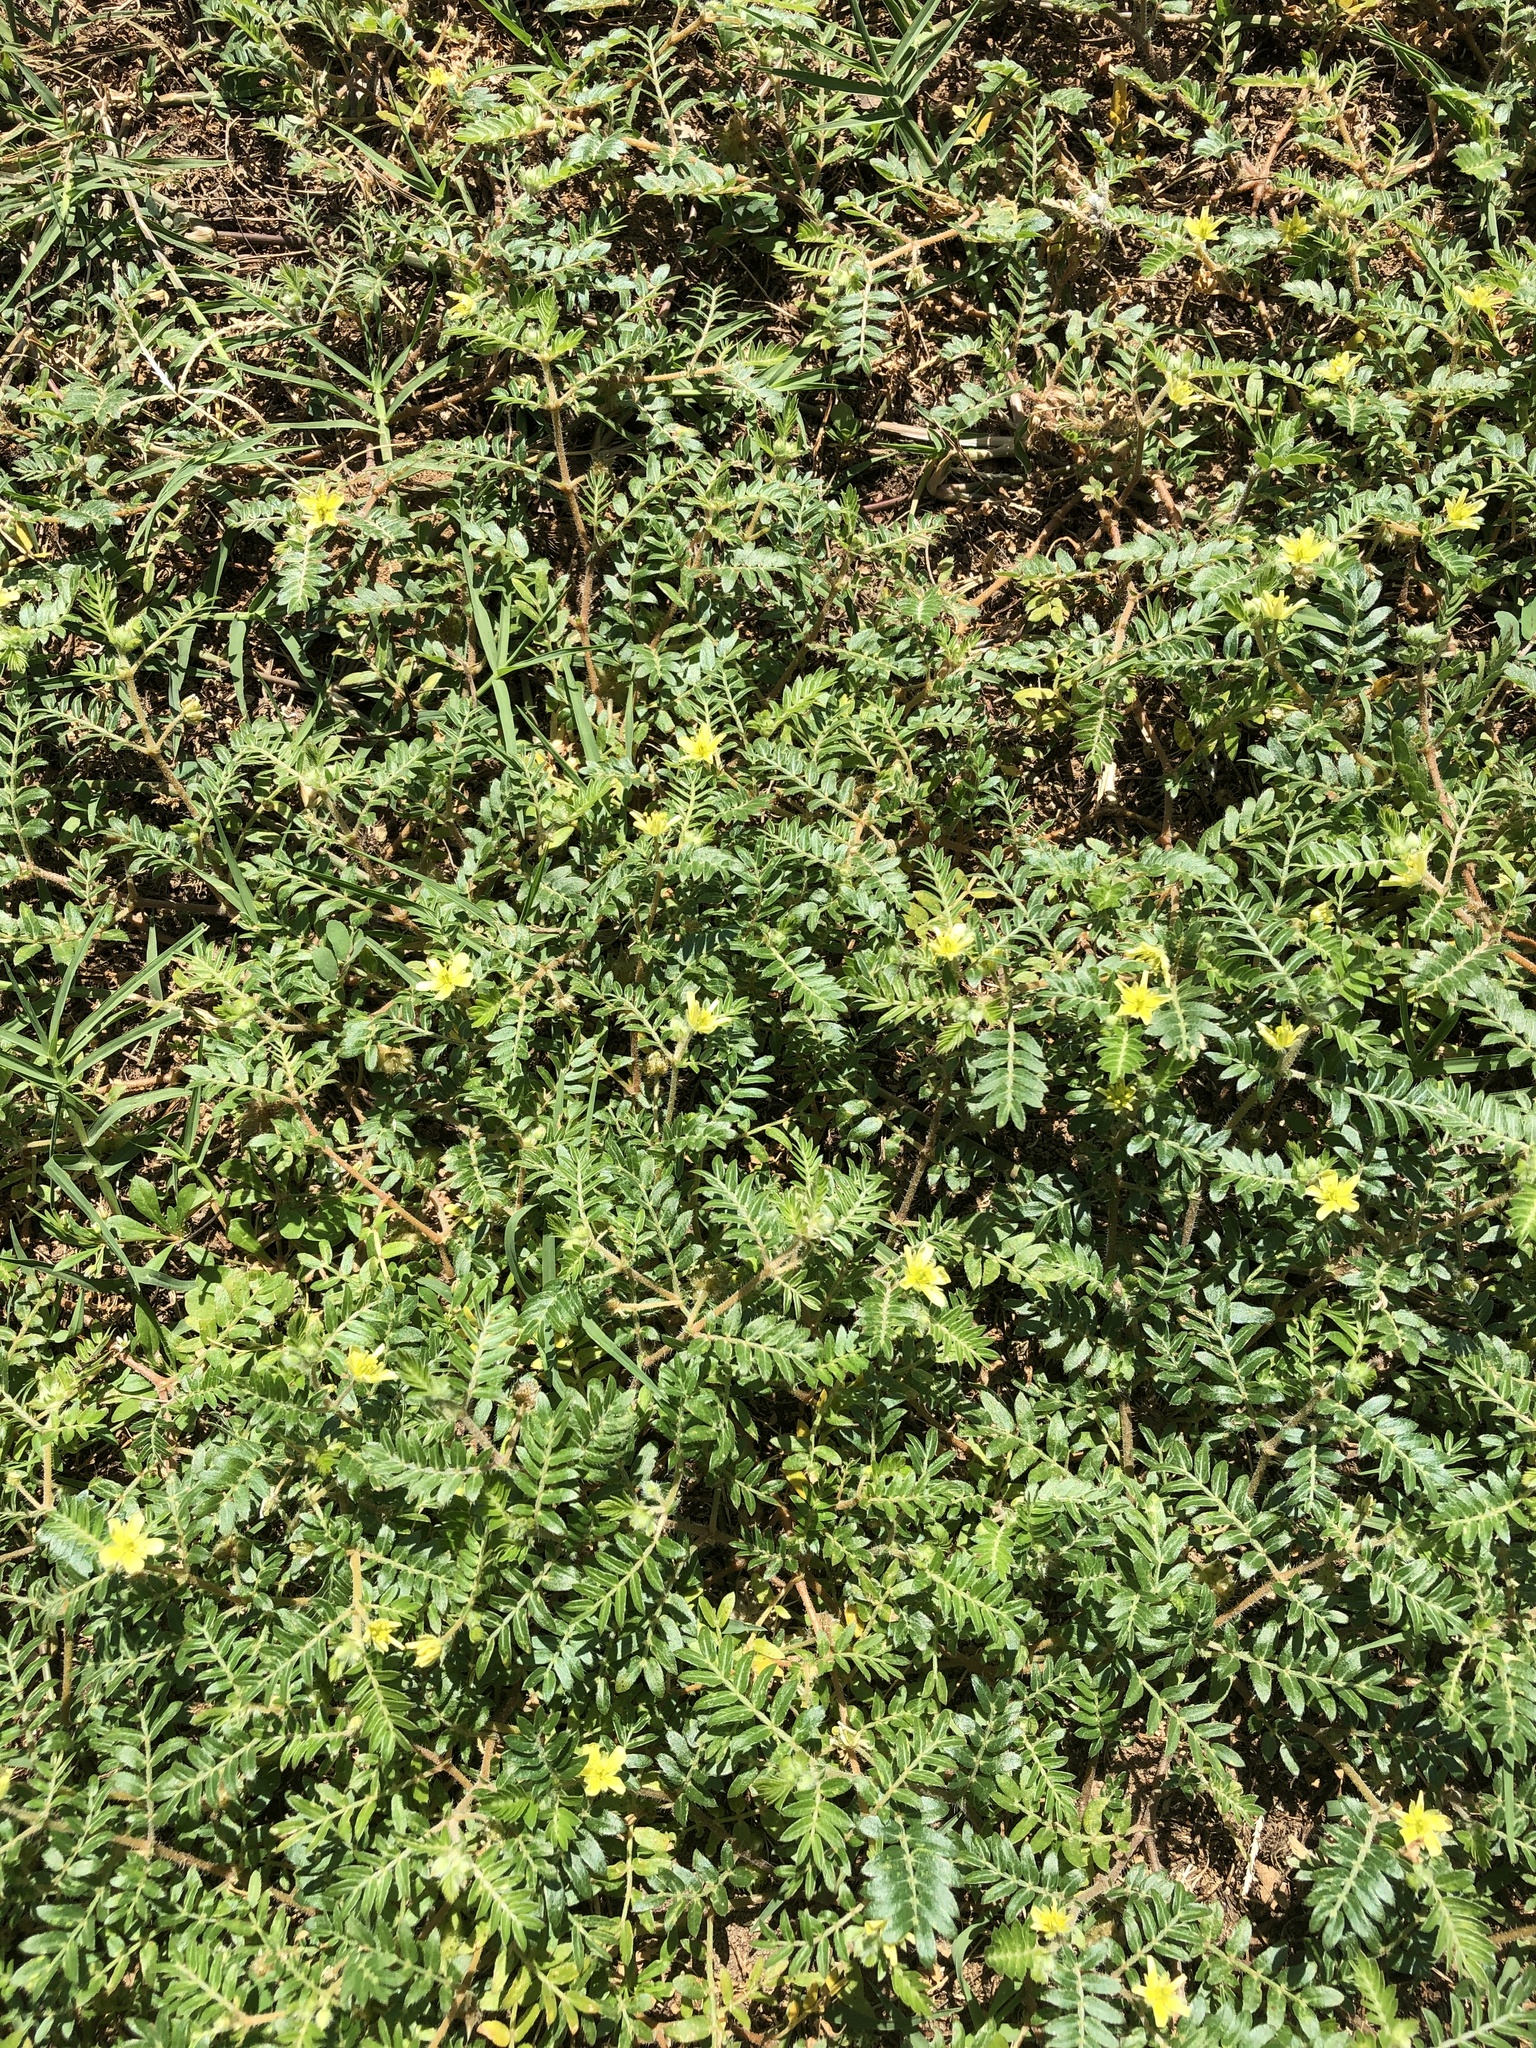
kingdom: Plantae
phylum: Tracheophyta
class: Magnoliopsida
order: Zygophyllales
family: Zygophyllaceae
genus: Tribulus
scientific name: Tribulus terrestris
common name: Puncturevine
